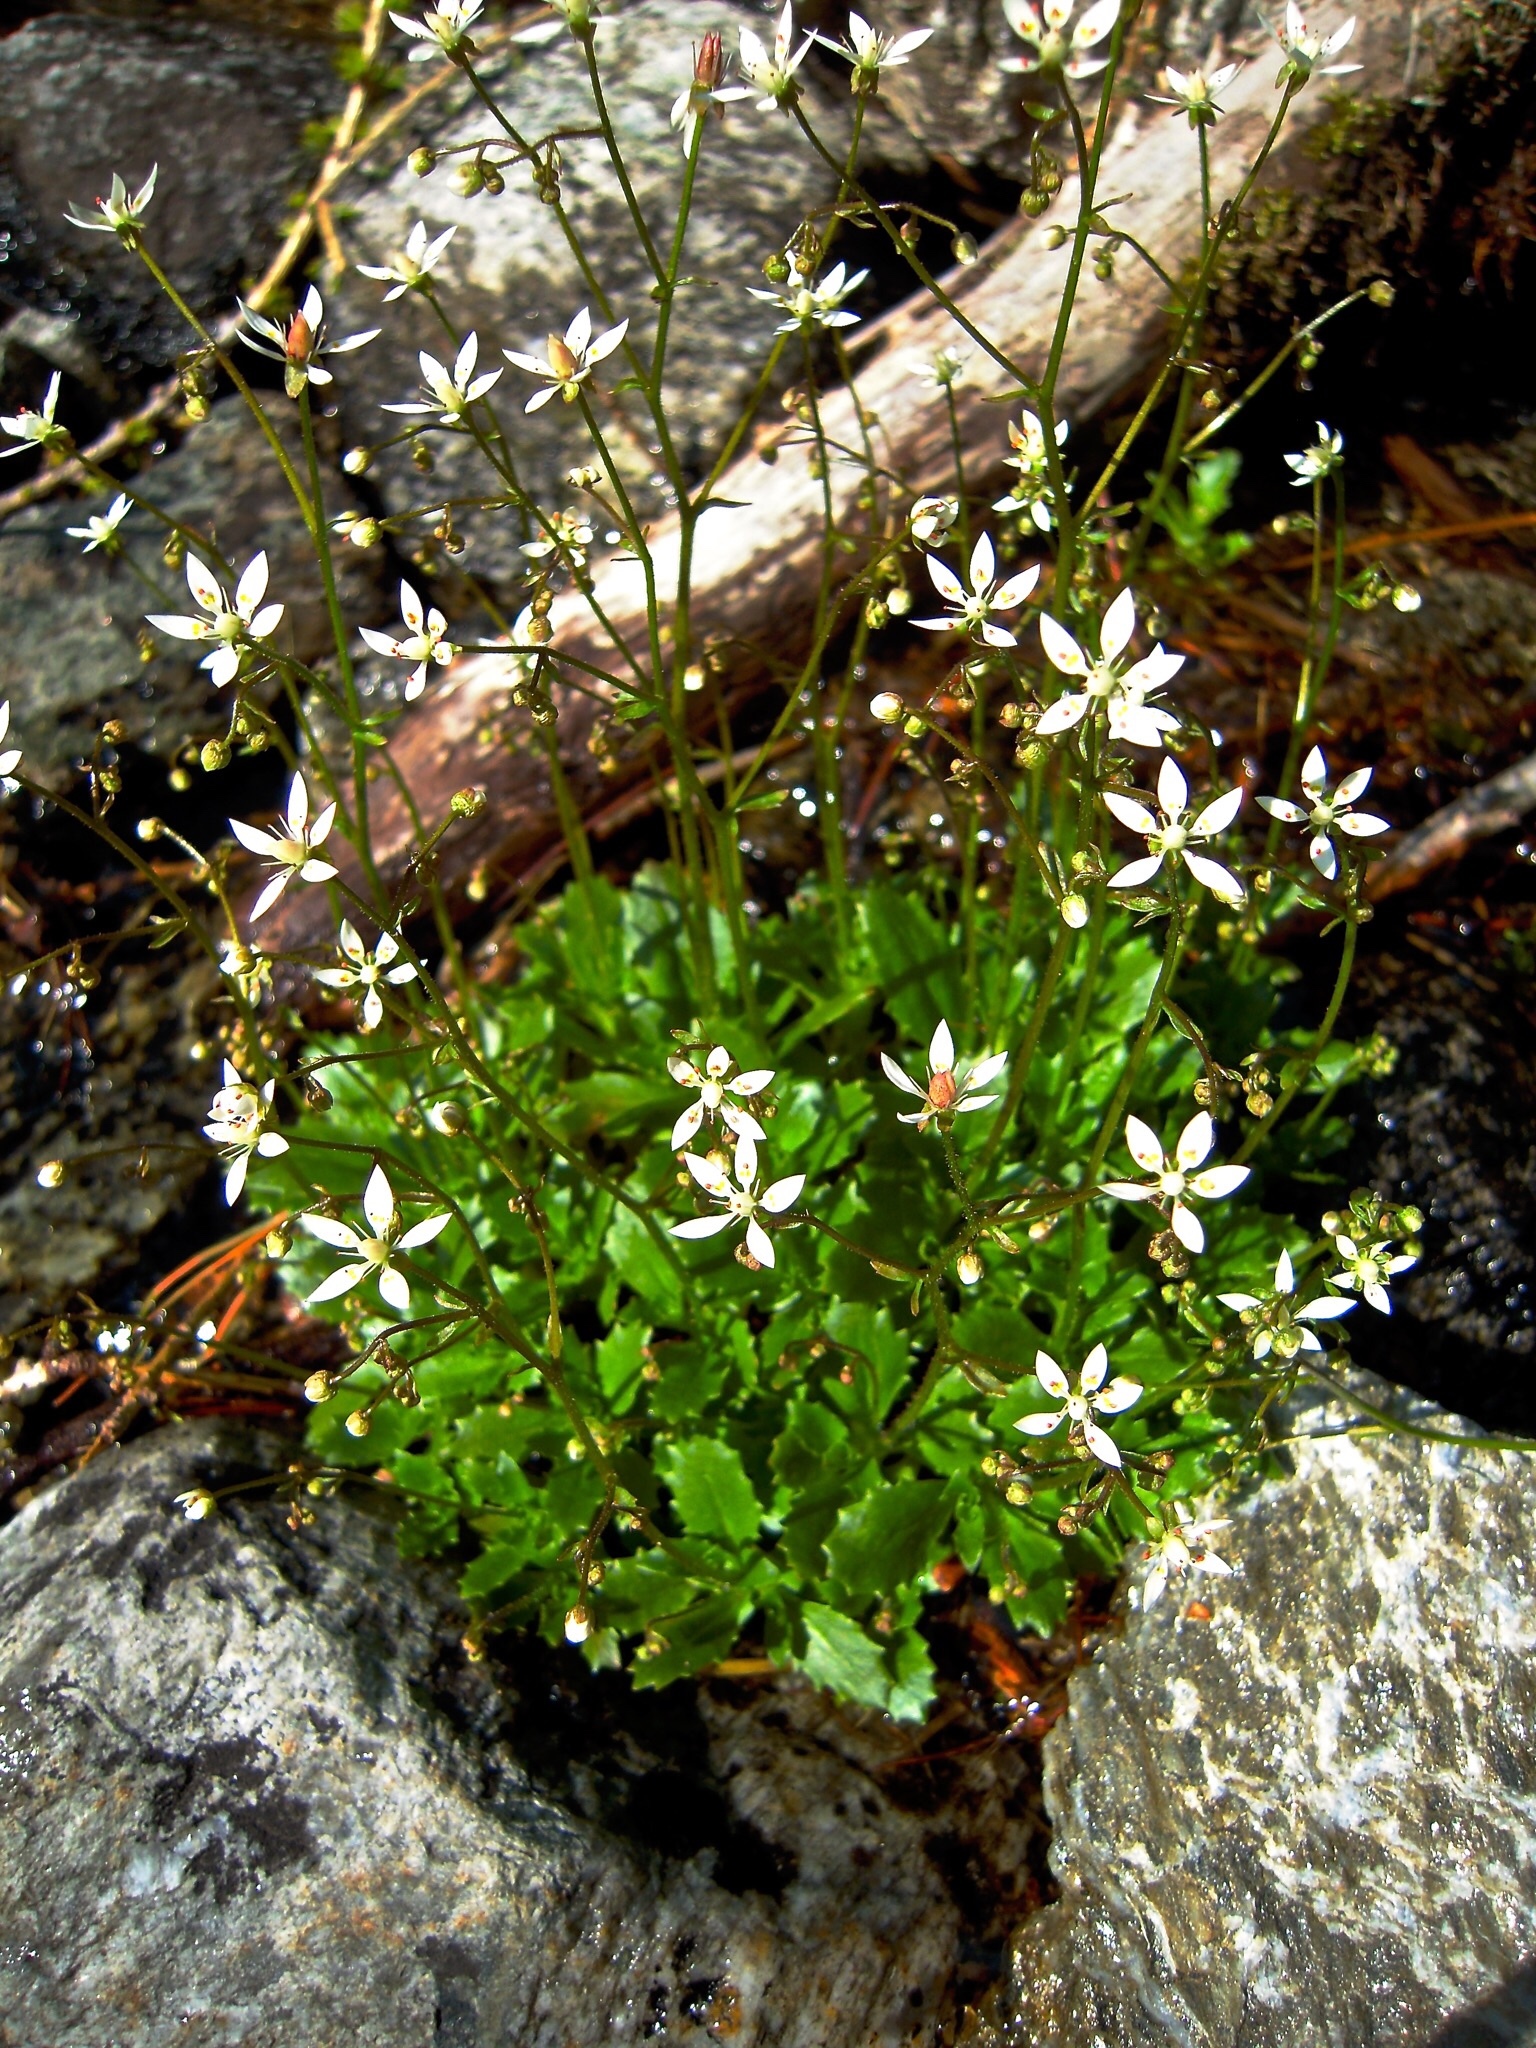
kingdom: Plantae
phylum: Tracheophyta
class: Magnoliopsida
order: Saxifragales
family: Saxifragaceae
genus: Micranthes
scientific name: Micranthes stellaris
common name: Starry saxifrage
